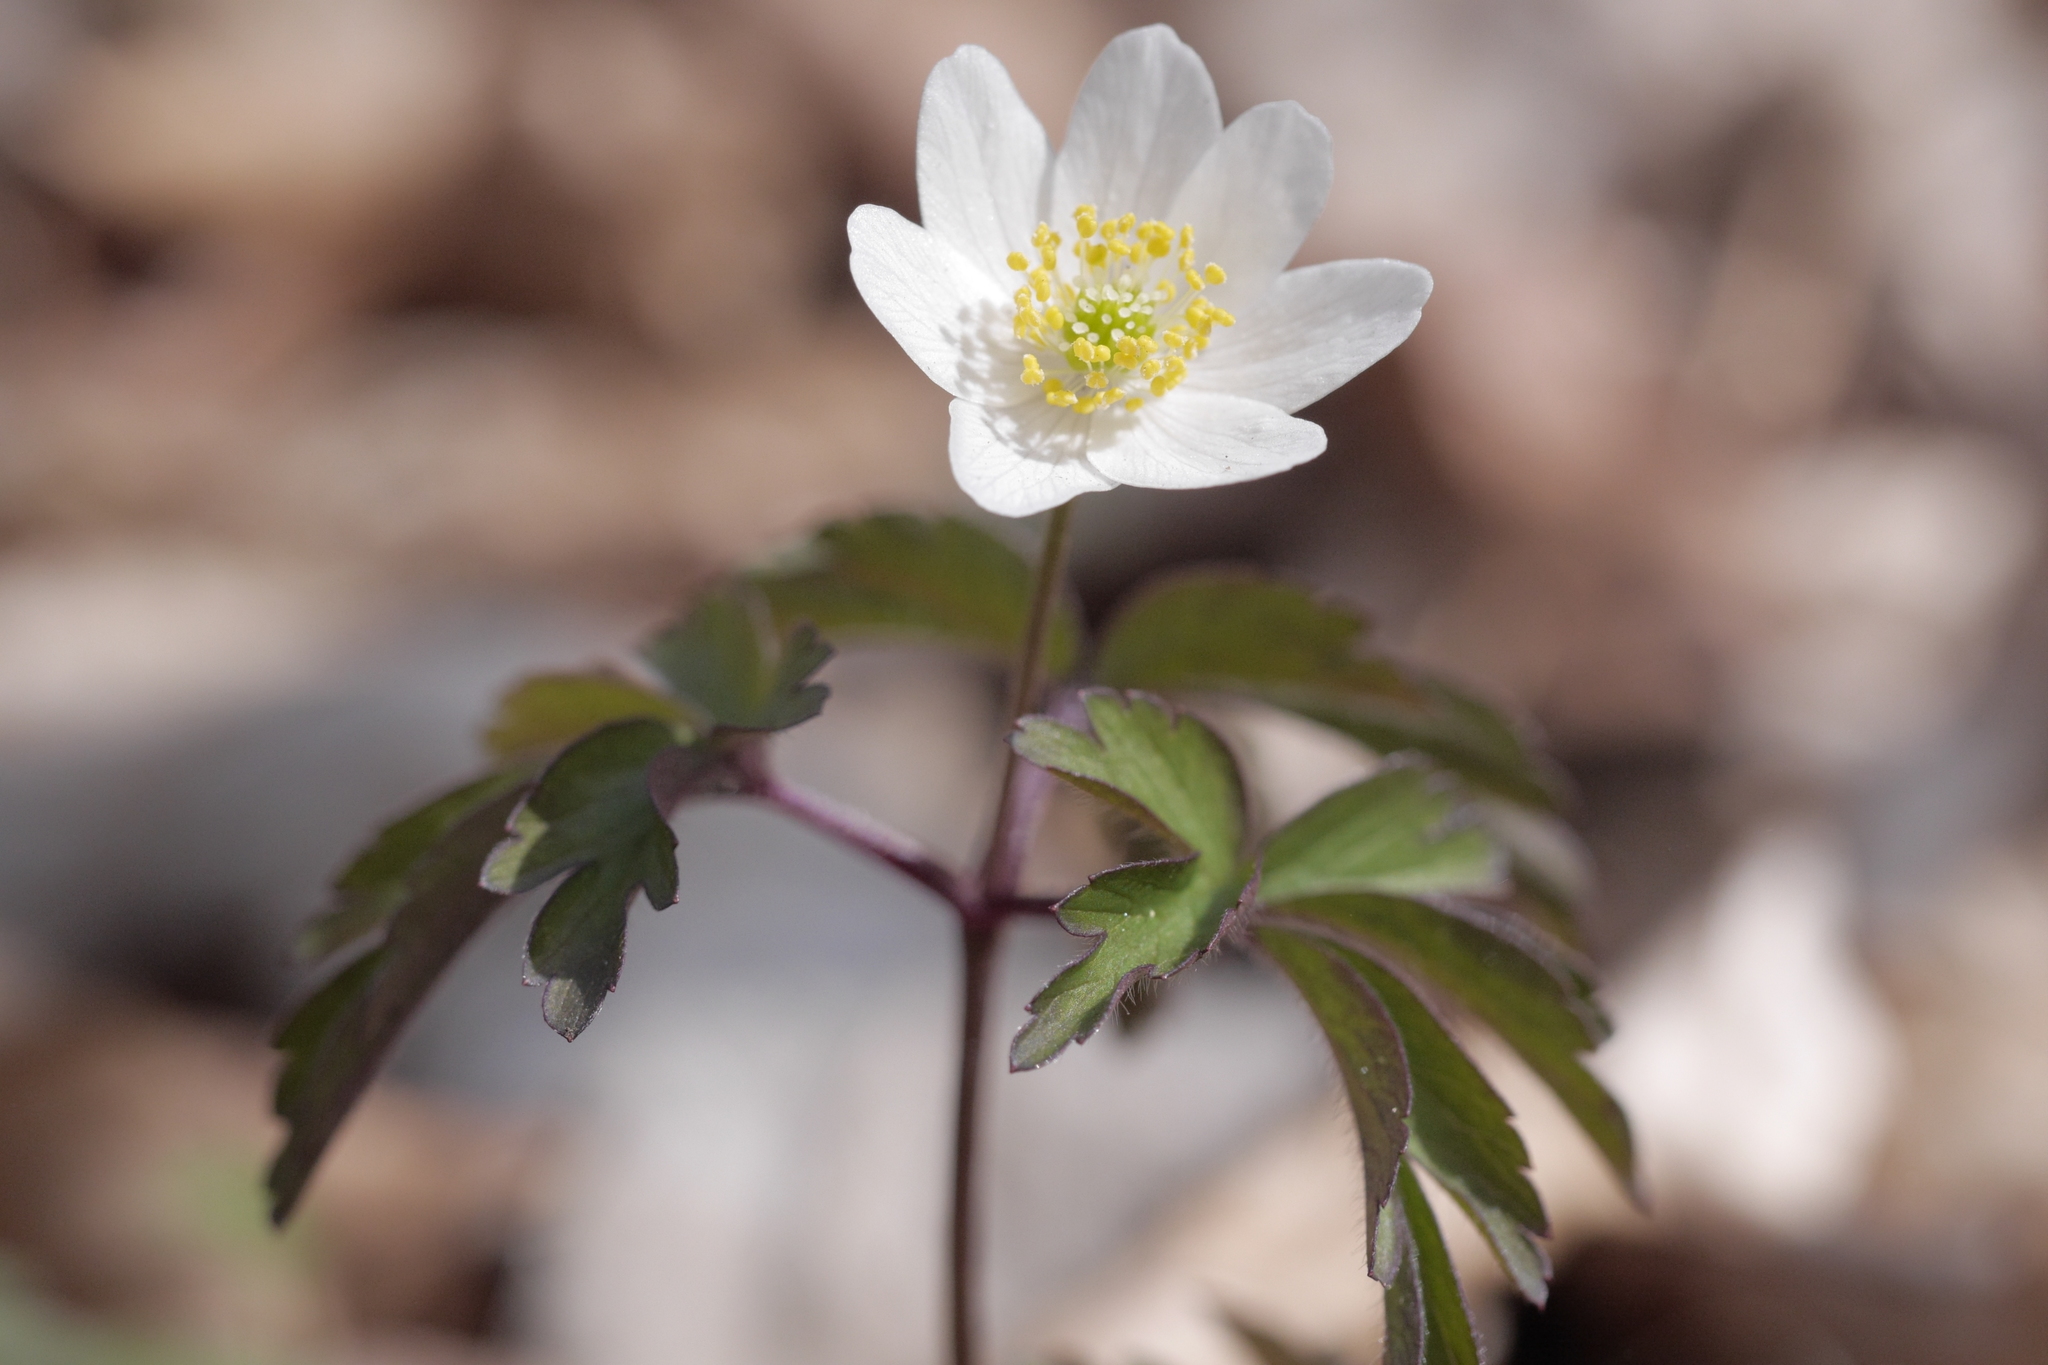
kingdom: Plantae
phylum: Tracheophyta
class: Magnoliopsida
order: Ranunculales
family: Ranunculaceae
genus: Anemone
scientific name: Anemone nemorosa
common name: Wood anemone
